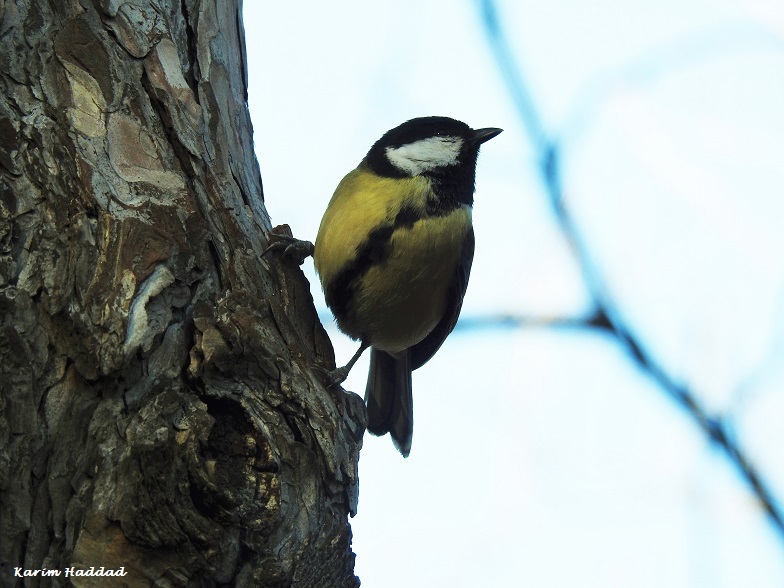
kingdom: Animalia
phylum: Chordata
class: Aves
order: Passeriformes
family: Paridae
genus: Parus
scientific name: Parus major
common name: Great tit
